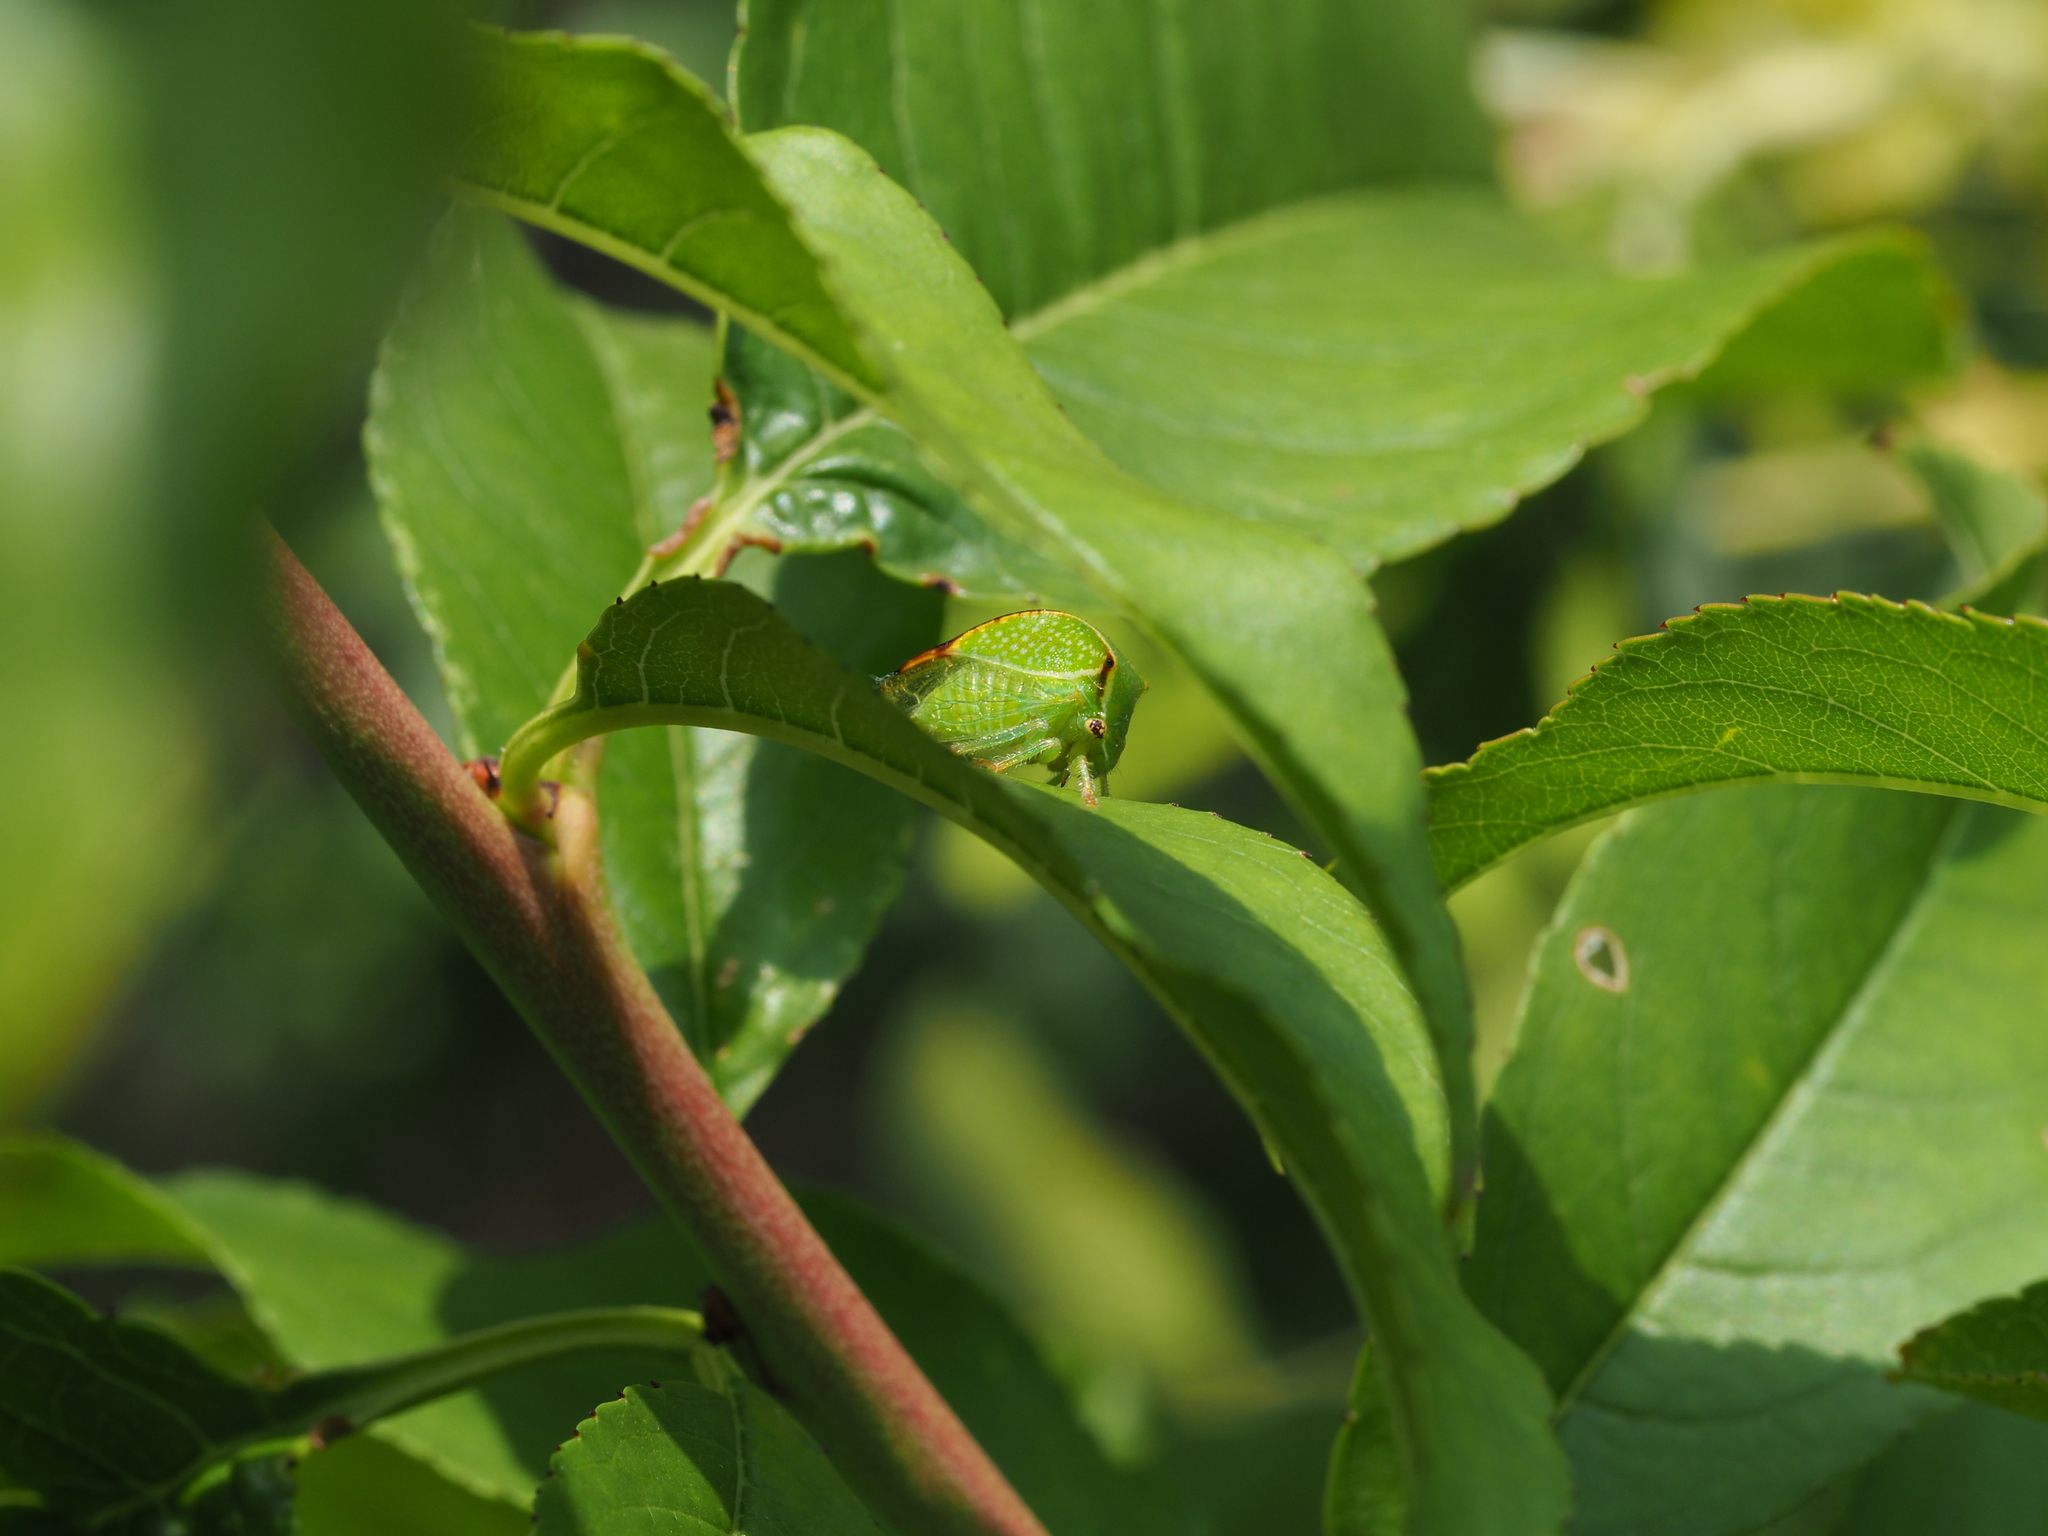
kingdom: Animalia
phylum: Arthropoda
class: Insecta
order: Hemiptera
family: Membracidae
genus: Stictocephala
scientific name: Stictocephala bisonia
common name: American buffalo treehopper
